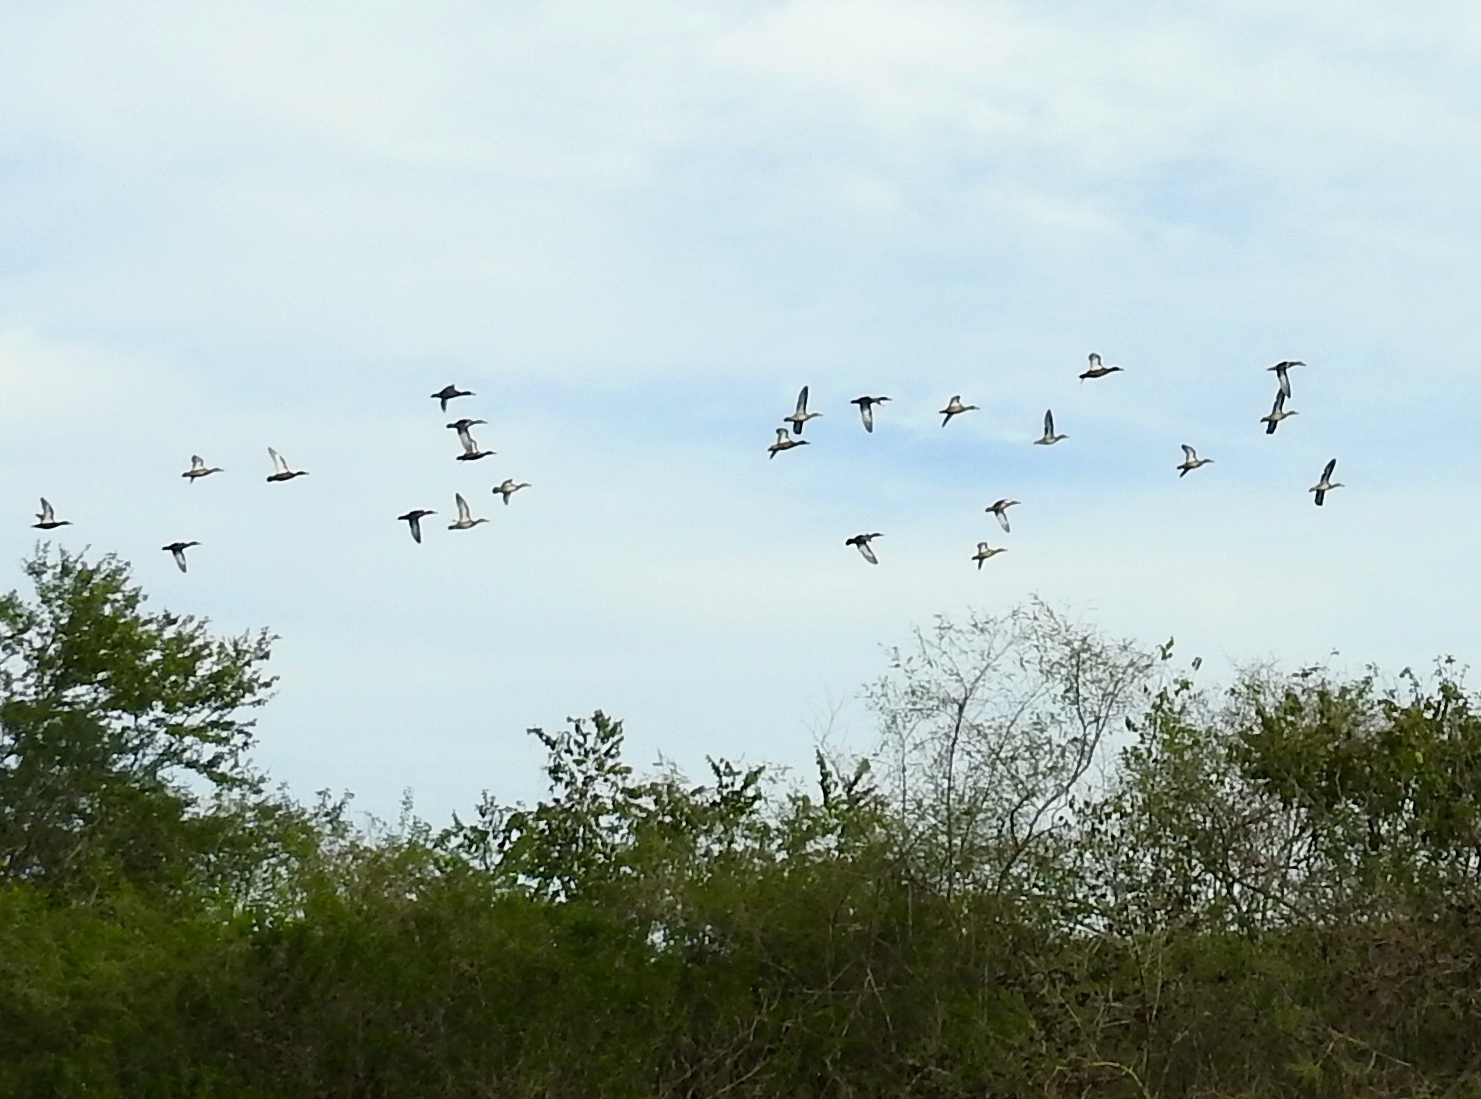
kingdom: Animalia
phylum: Chordata
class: Aves
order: Anseriformes
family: Anatidae
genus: Spatula
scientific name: Spatula discors
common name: Blue-winged teal
